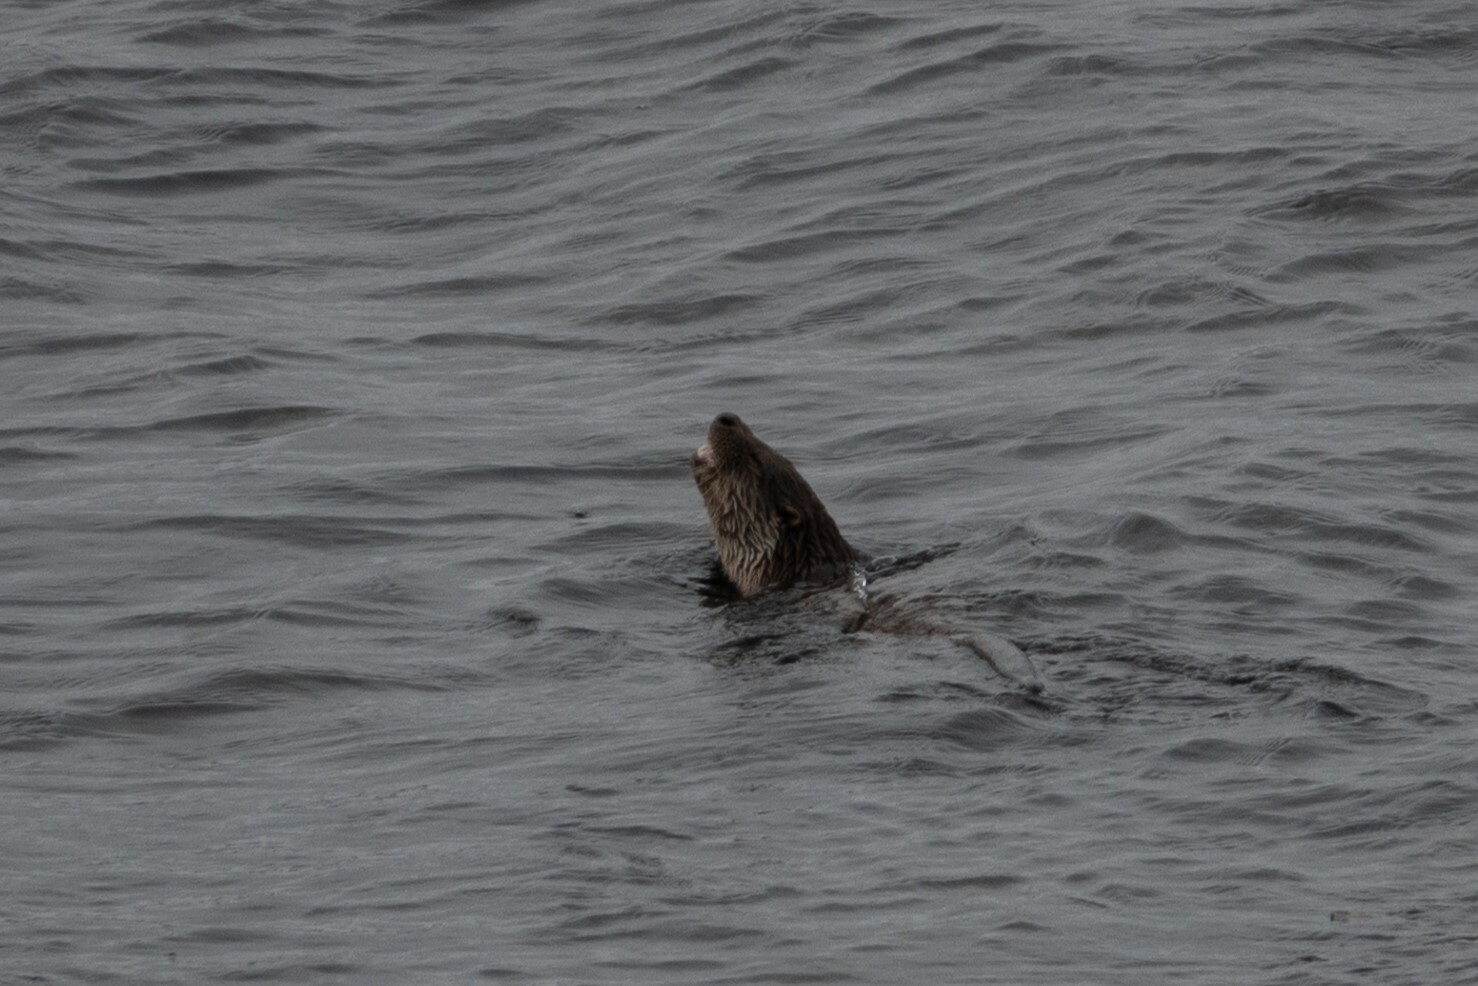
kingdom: Animalia
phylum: Chordata
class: Mammalia
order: Carnivora
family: Mustelidae
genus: Lutra
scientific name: Lutra lutra
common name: European otter
